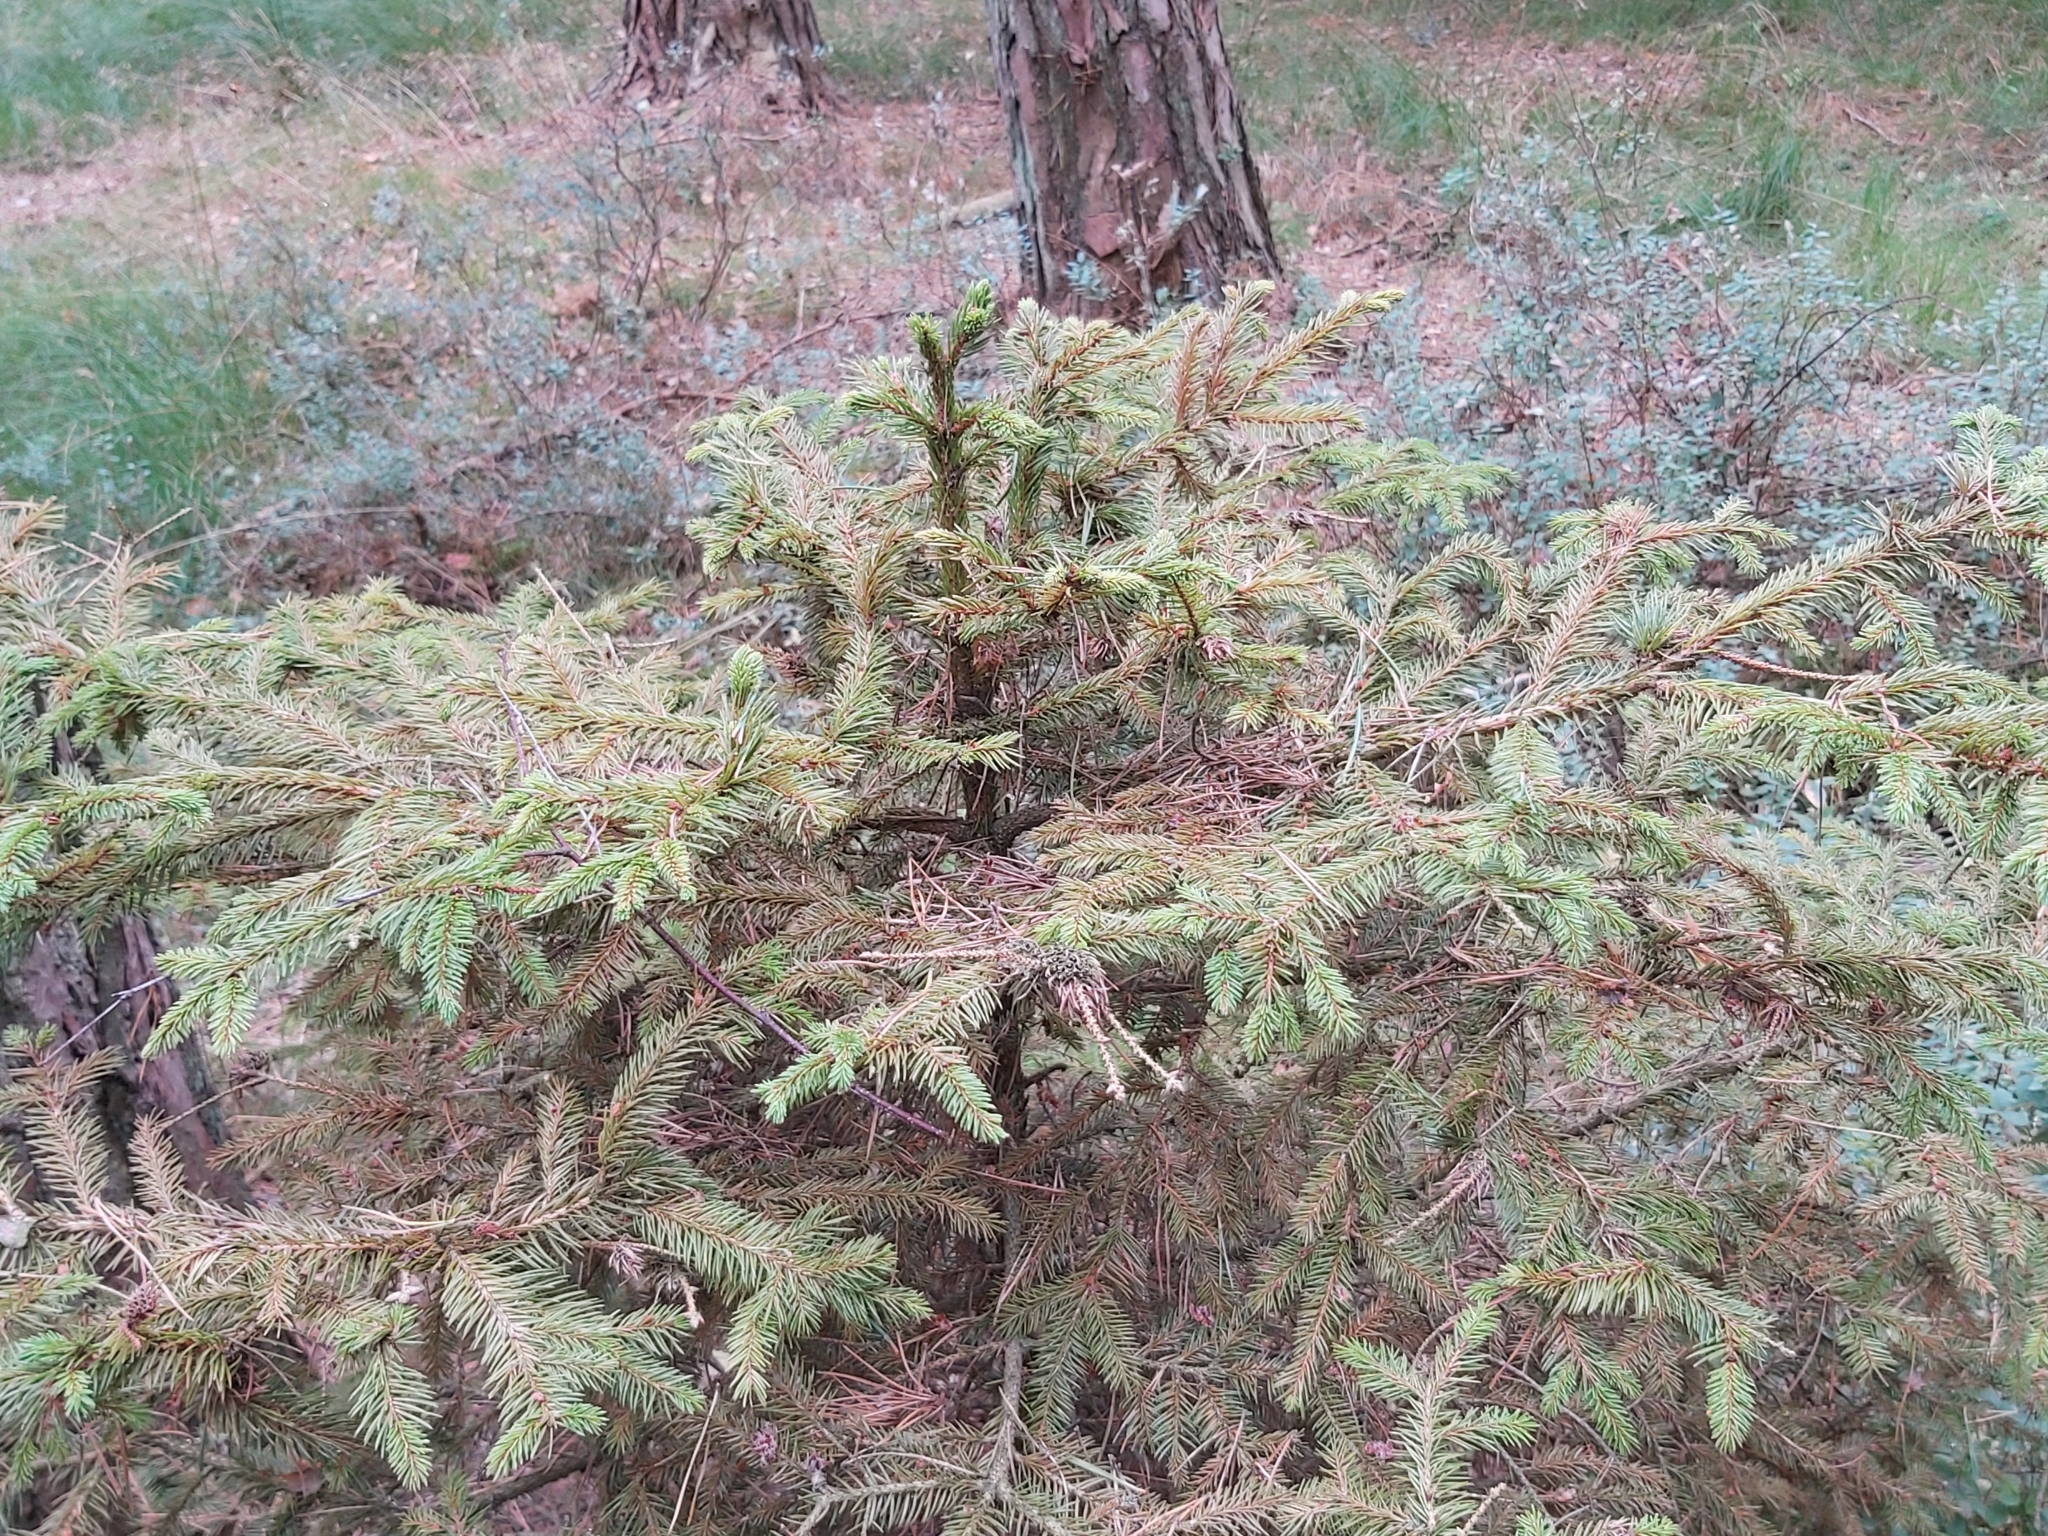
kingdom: Plantae
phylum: Tracheophyta
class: Pinopsida
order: Pinales
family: Pinaceae
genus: Picea
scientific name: Picea abies
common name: Norway spruce
